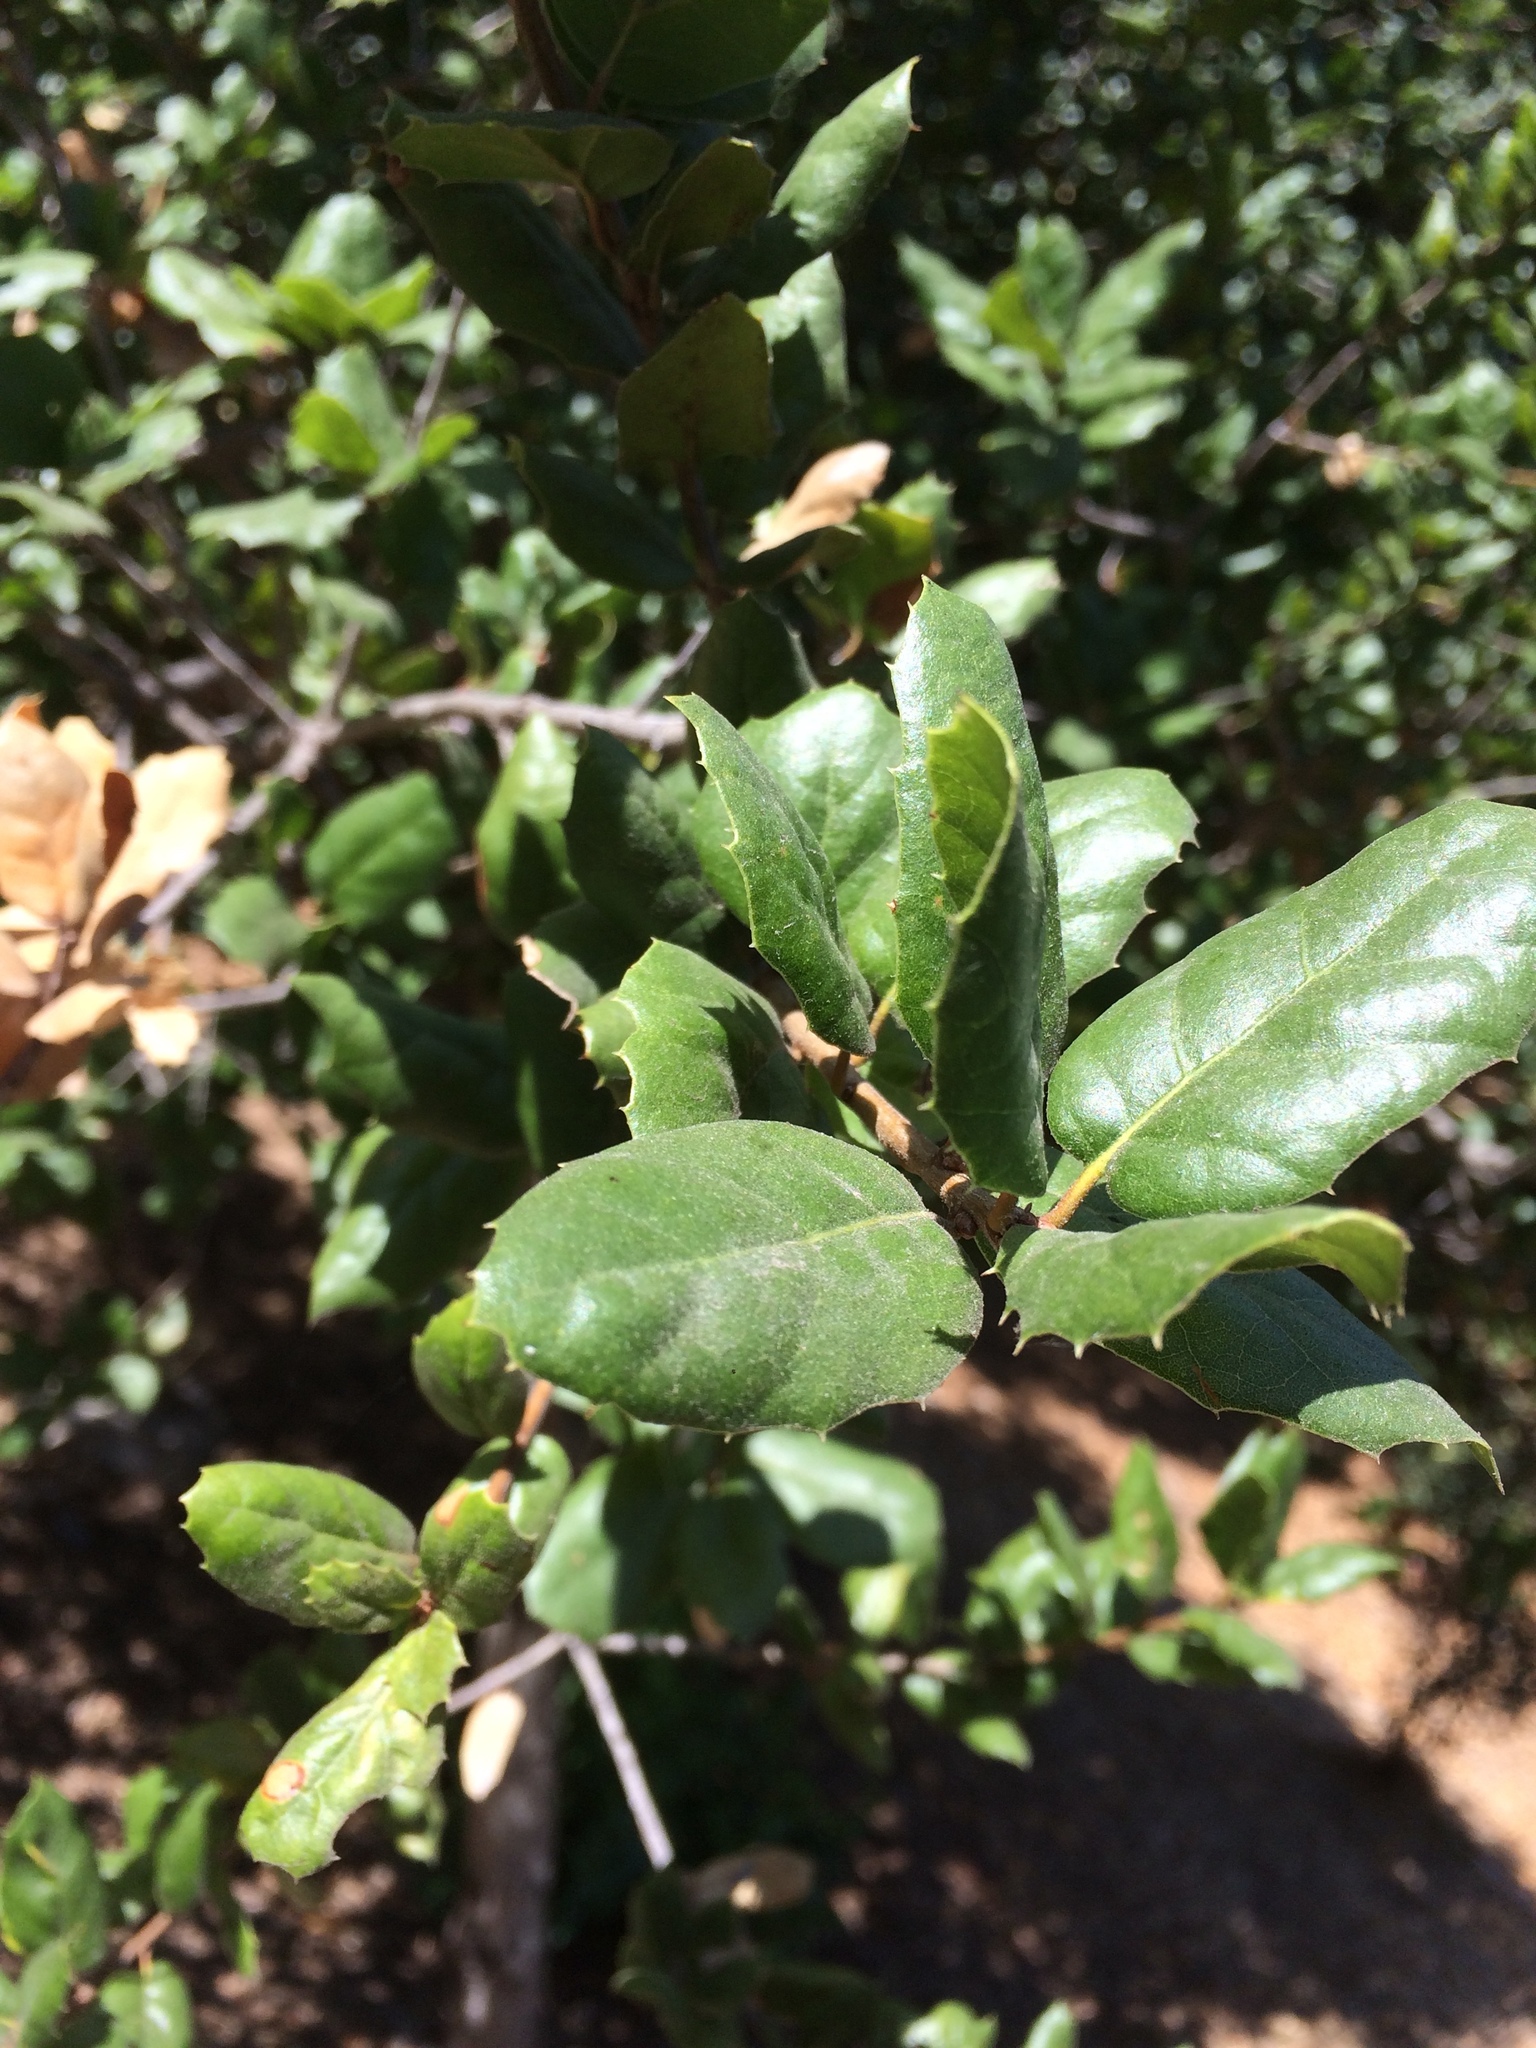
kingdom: Plantae
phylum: Tracheophyta
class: Magnoliopsida
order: Fagales
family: Fagaceae
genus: Quercus
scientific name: Quercus agrifolia
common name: California live oak
